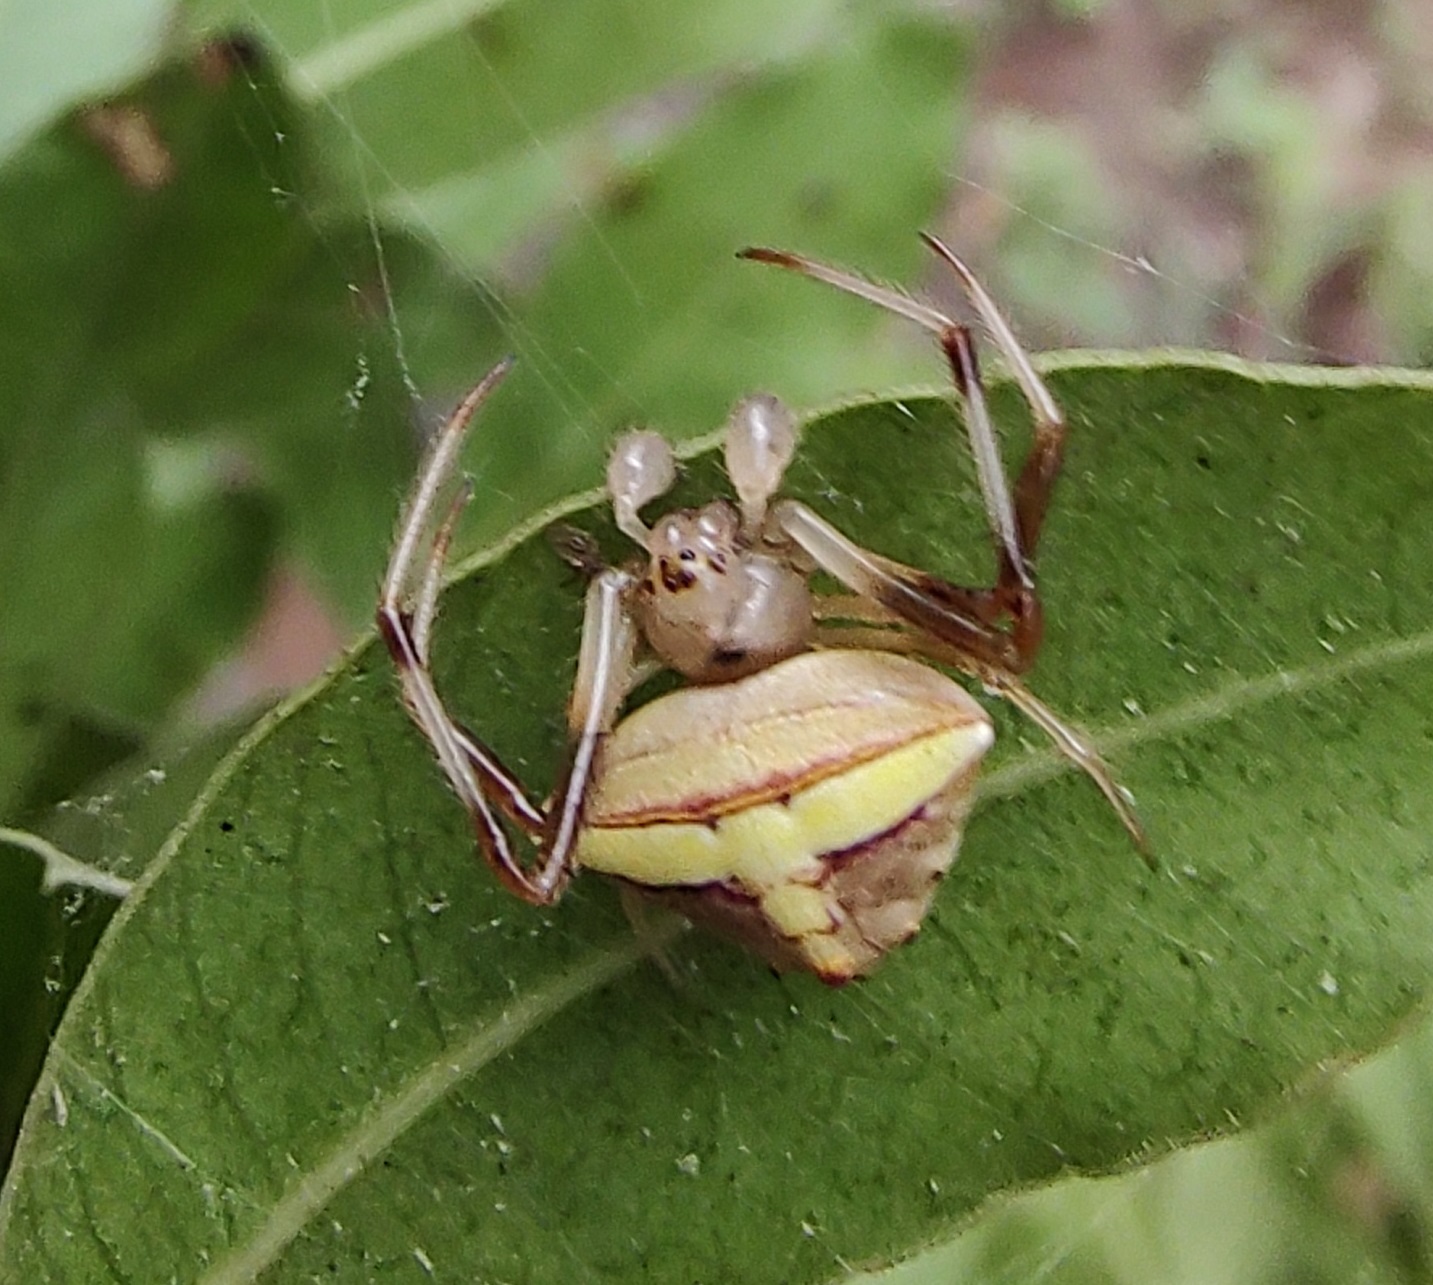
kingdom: Animalia
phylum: Arthropoda
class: Arachnida
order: Araneae
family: Araneidae
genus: Verrucosa
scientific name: Verrucosa undecimvariolata
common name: Orb weavers
